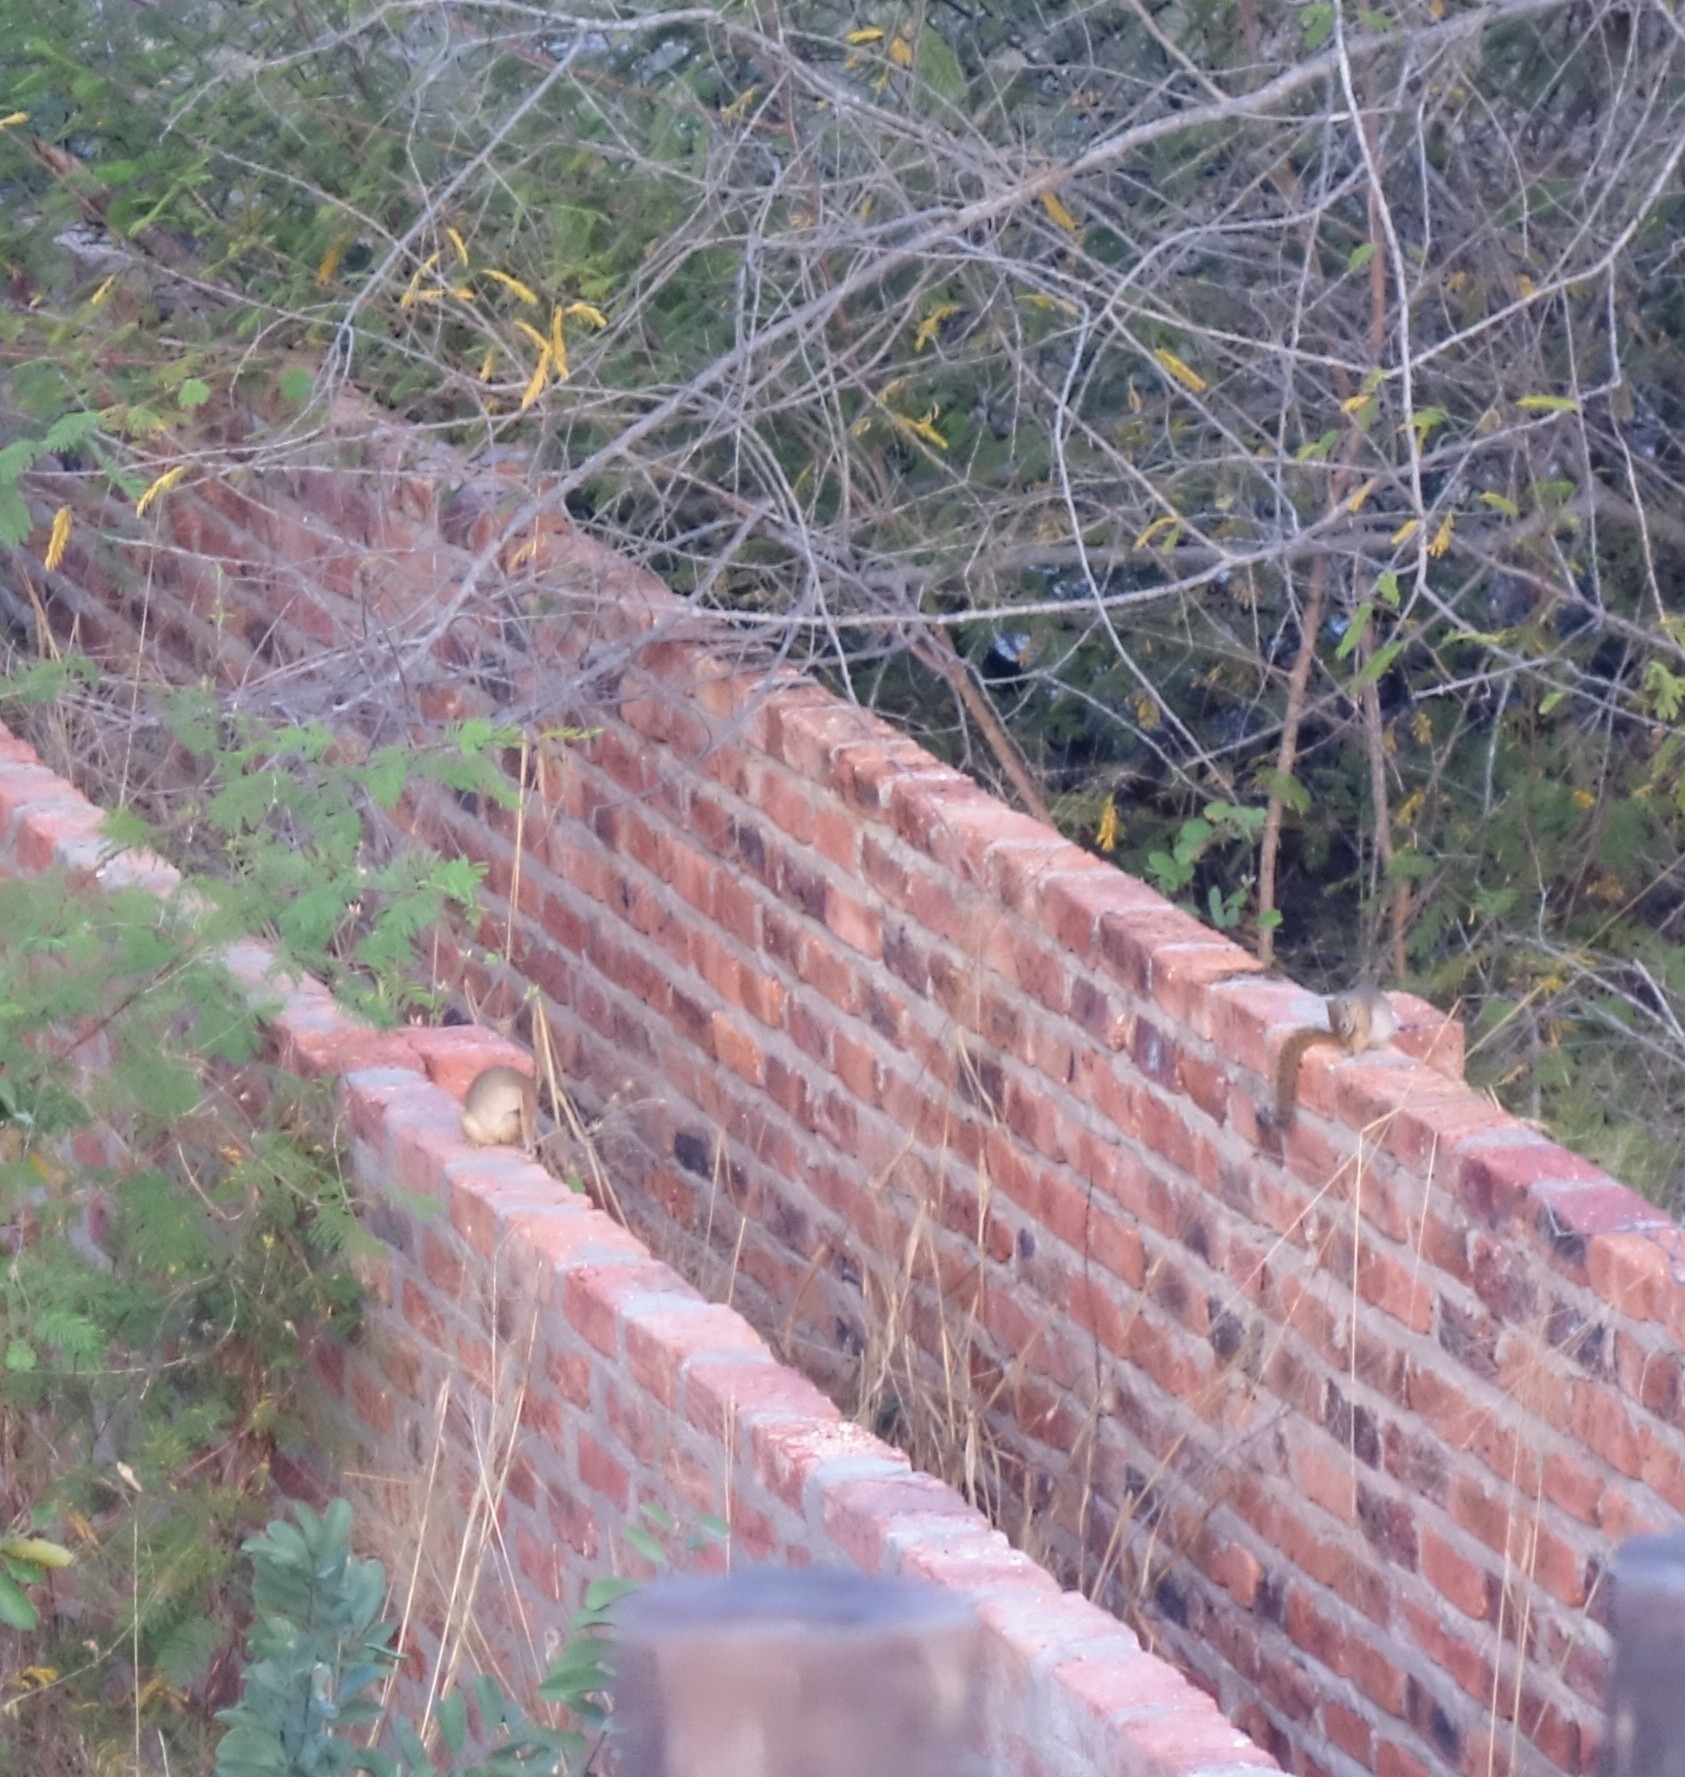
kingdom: Animalia
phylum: Chordata
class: Mammalia
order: Rodentia
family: Sciuridae
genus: Paraxerus
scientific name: Paraxerus cepapi
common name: Smith's bush squirrel
